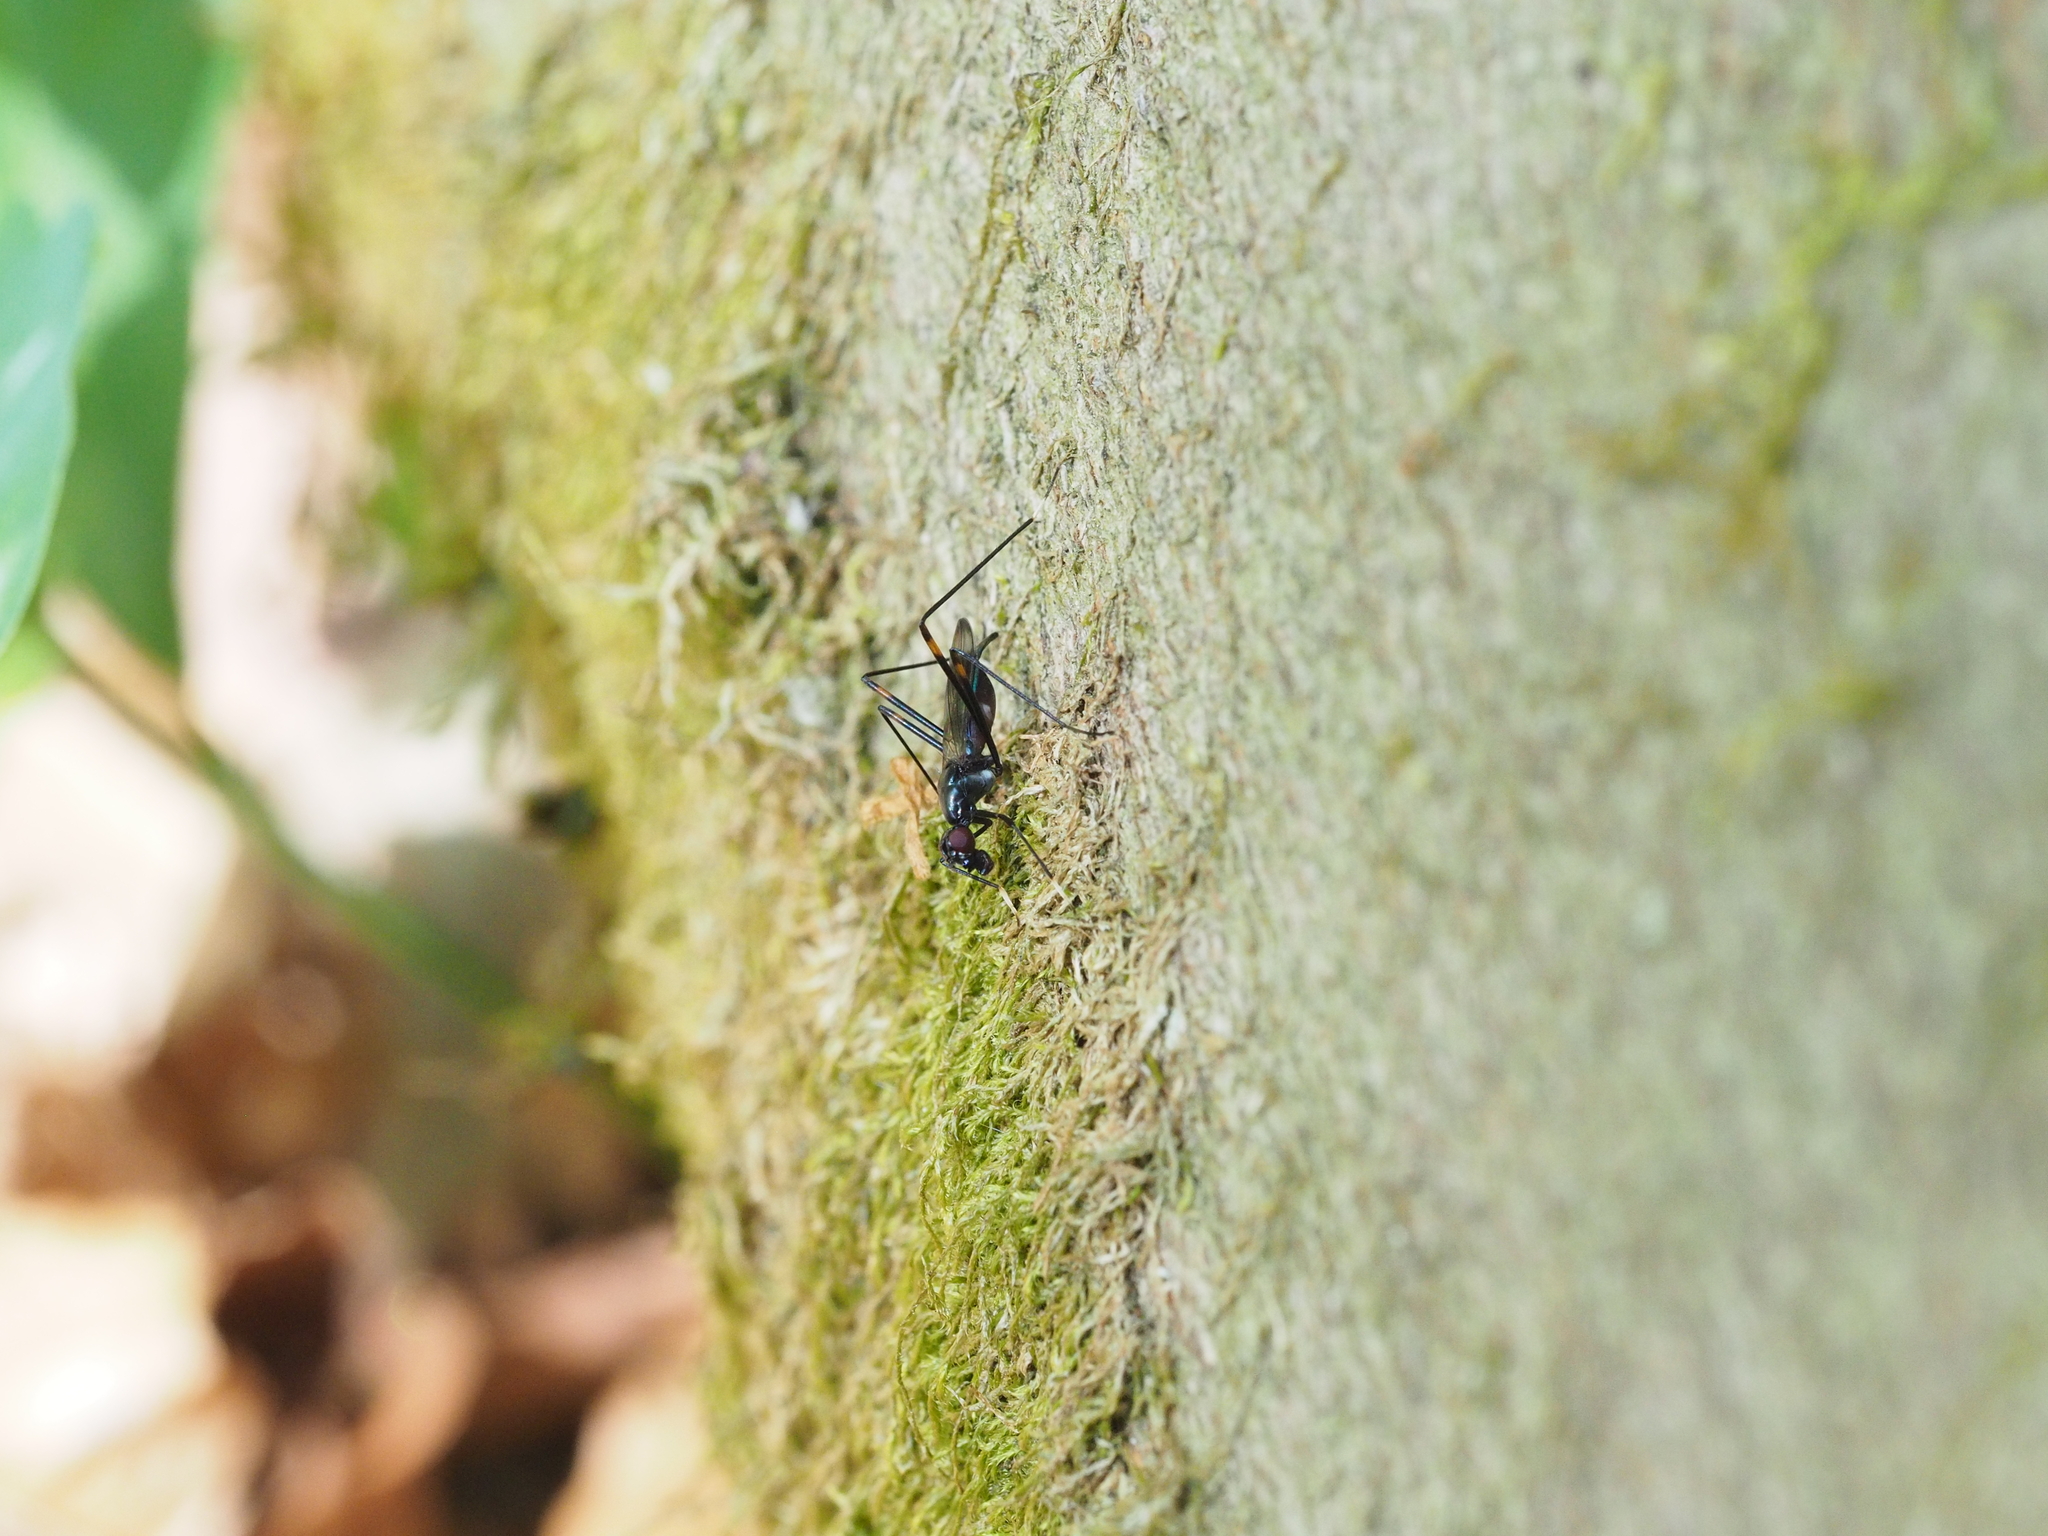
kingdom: Animalia
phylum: Arthropoda
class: Insecta
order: Diptera
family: Micropezidae
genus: Rainieria
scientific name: Rainieria calceata
